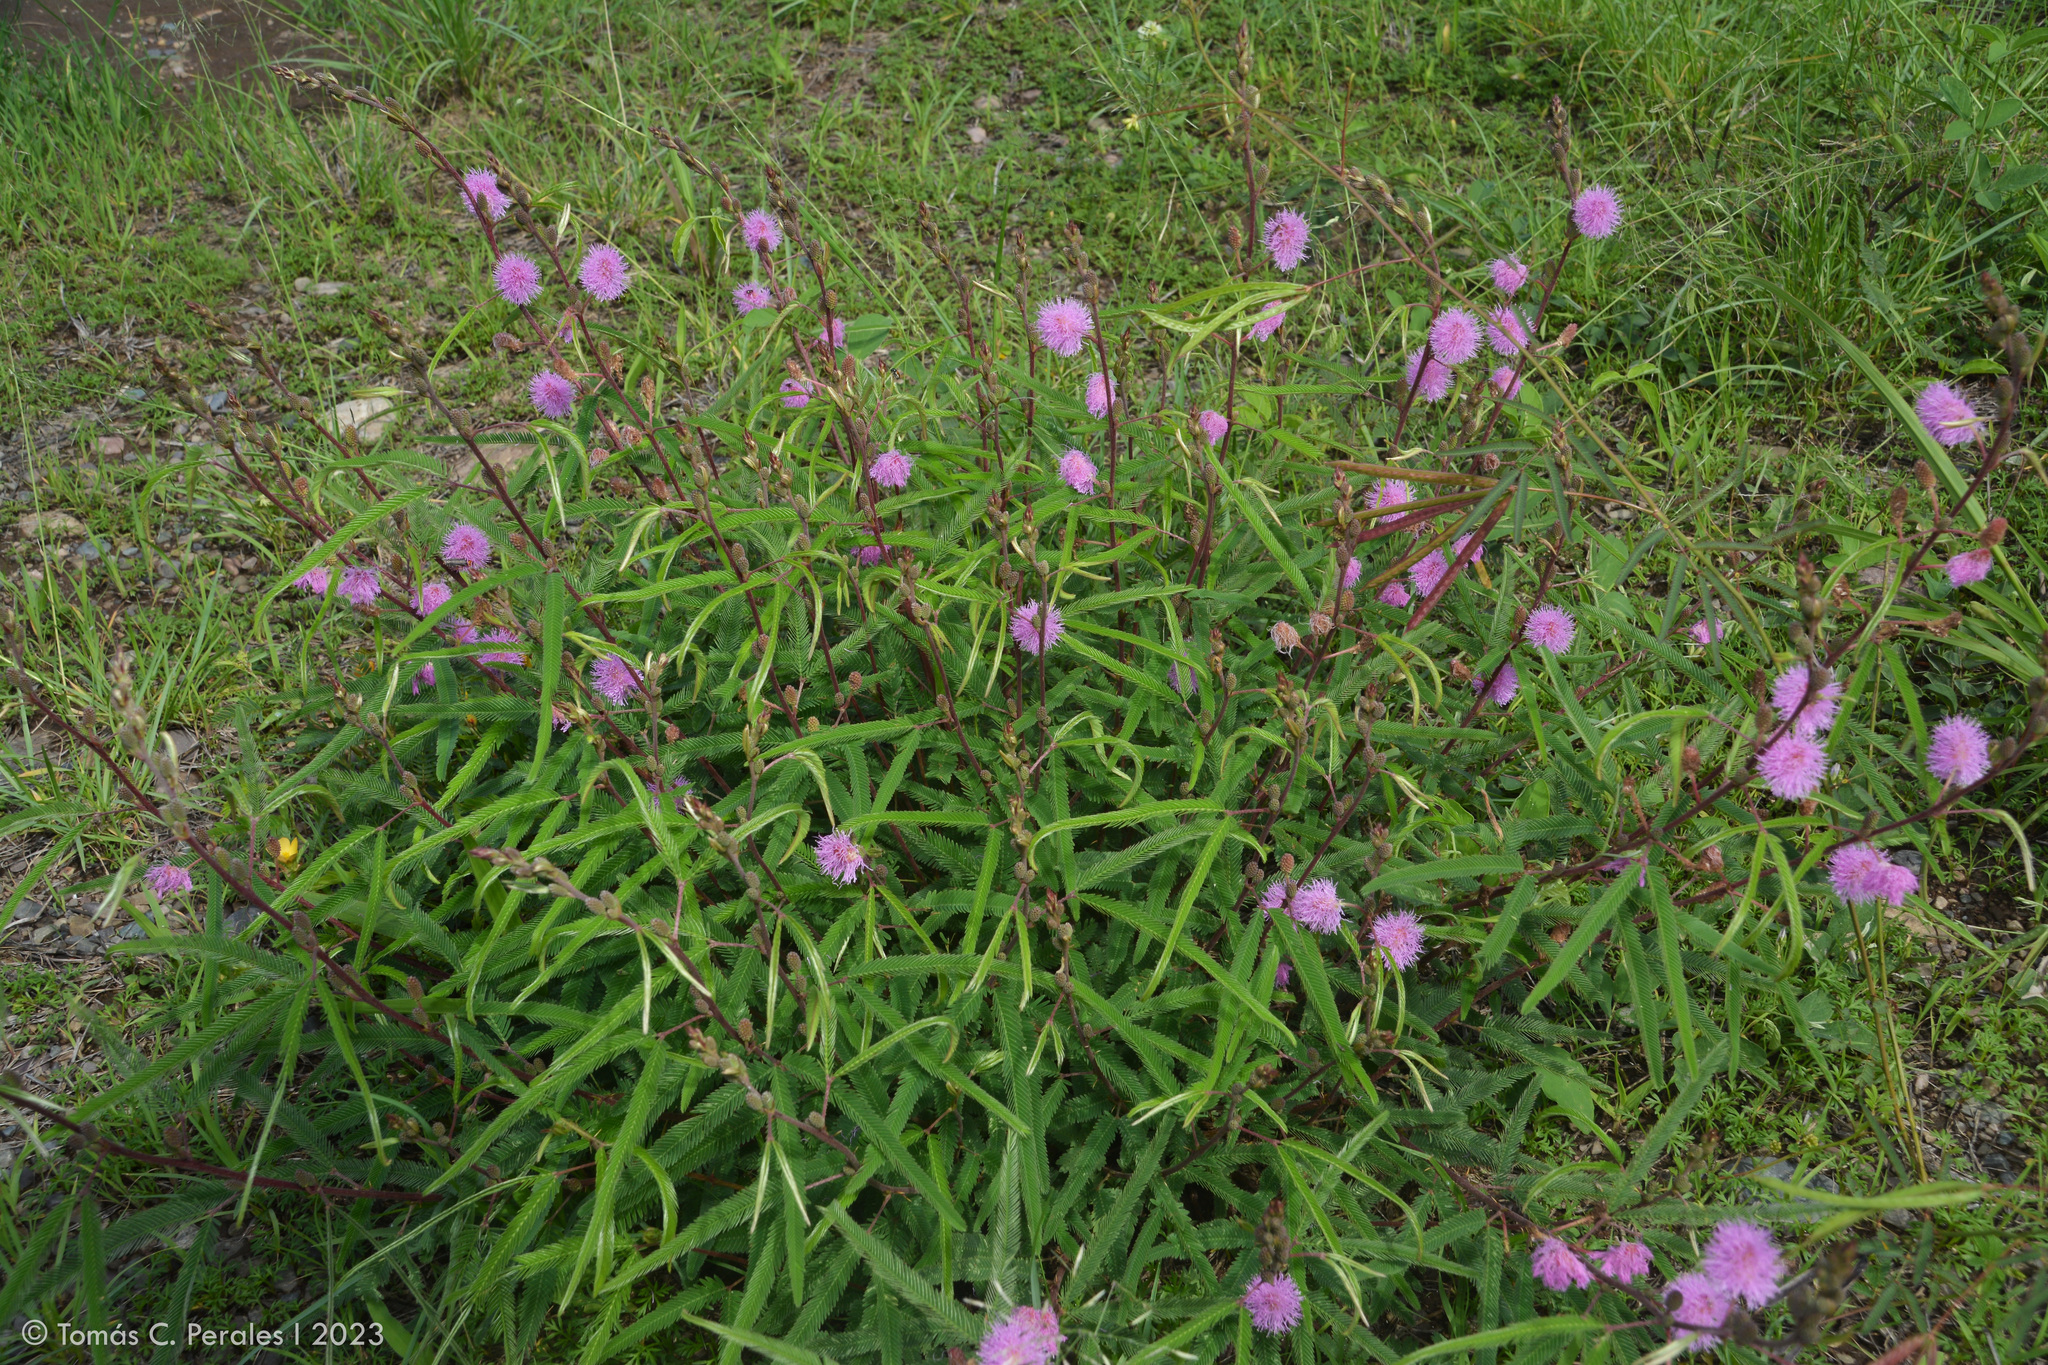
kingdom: Plantae
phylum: Tracheophyta
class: Magnoliopsida
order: Fabales
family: Fabaceae
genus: Mimosa
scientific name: Mimosa xanthocentra
